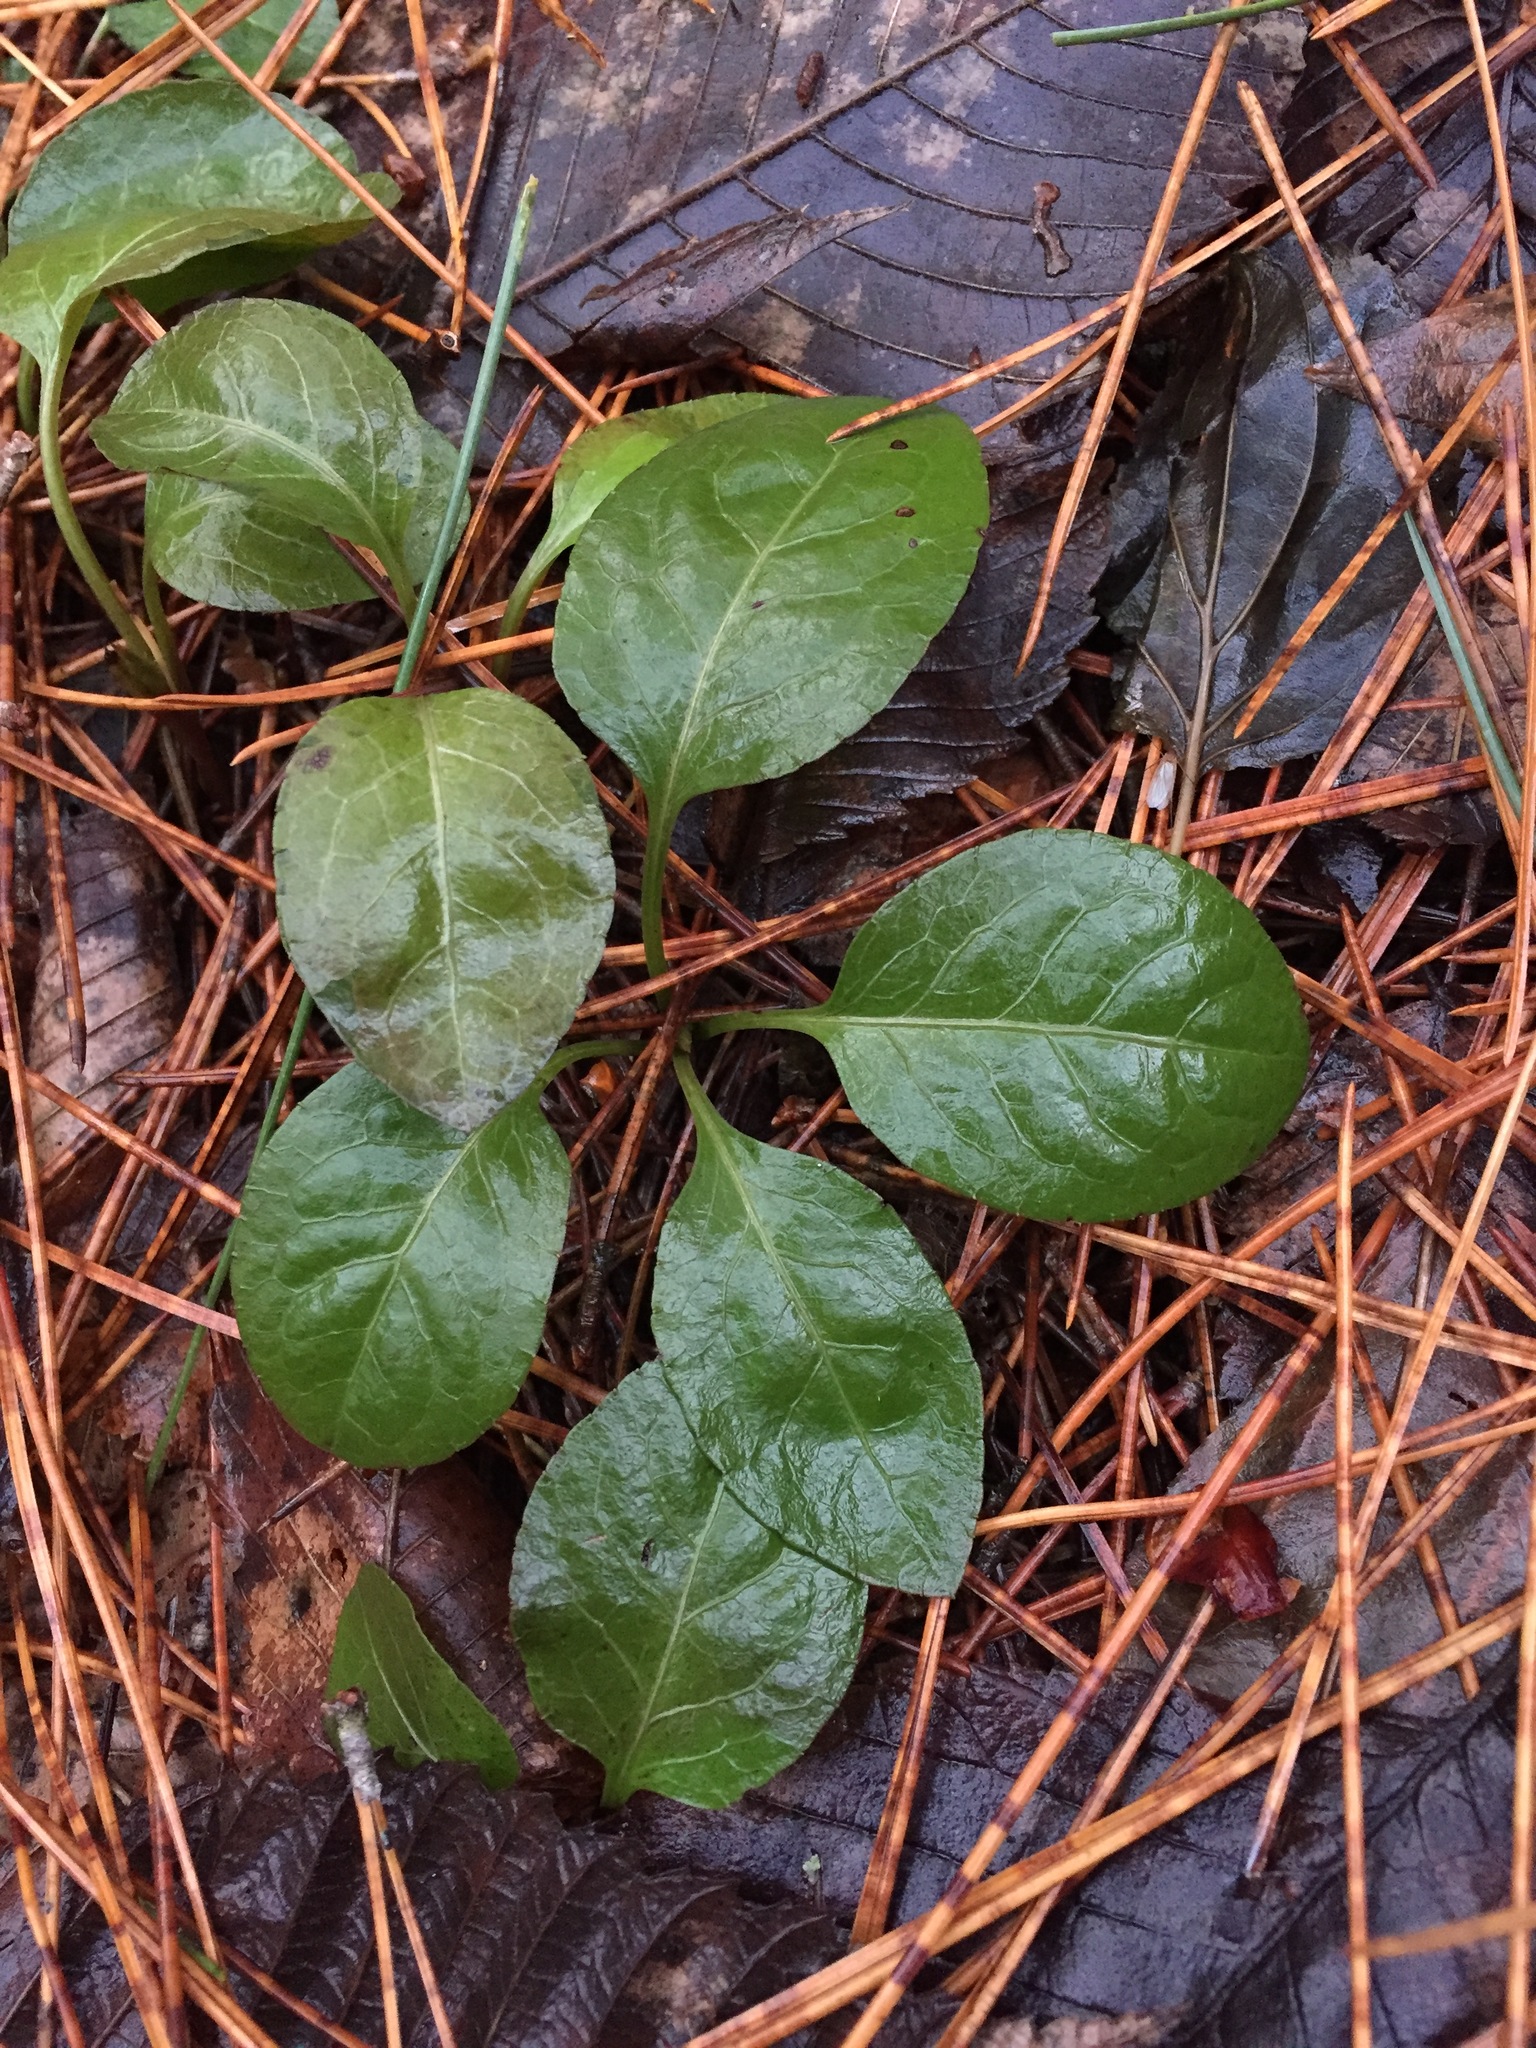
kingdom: Plantae
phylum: Tracheophyta
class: Magnoliopsida
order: Ericales
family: Ericaceae
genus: Pyrola
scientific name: Pyrola elliptica
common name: Shinleaf
